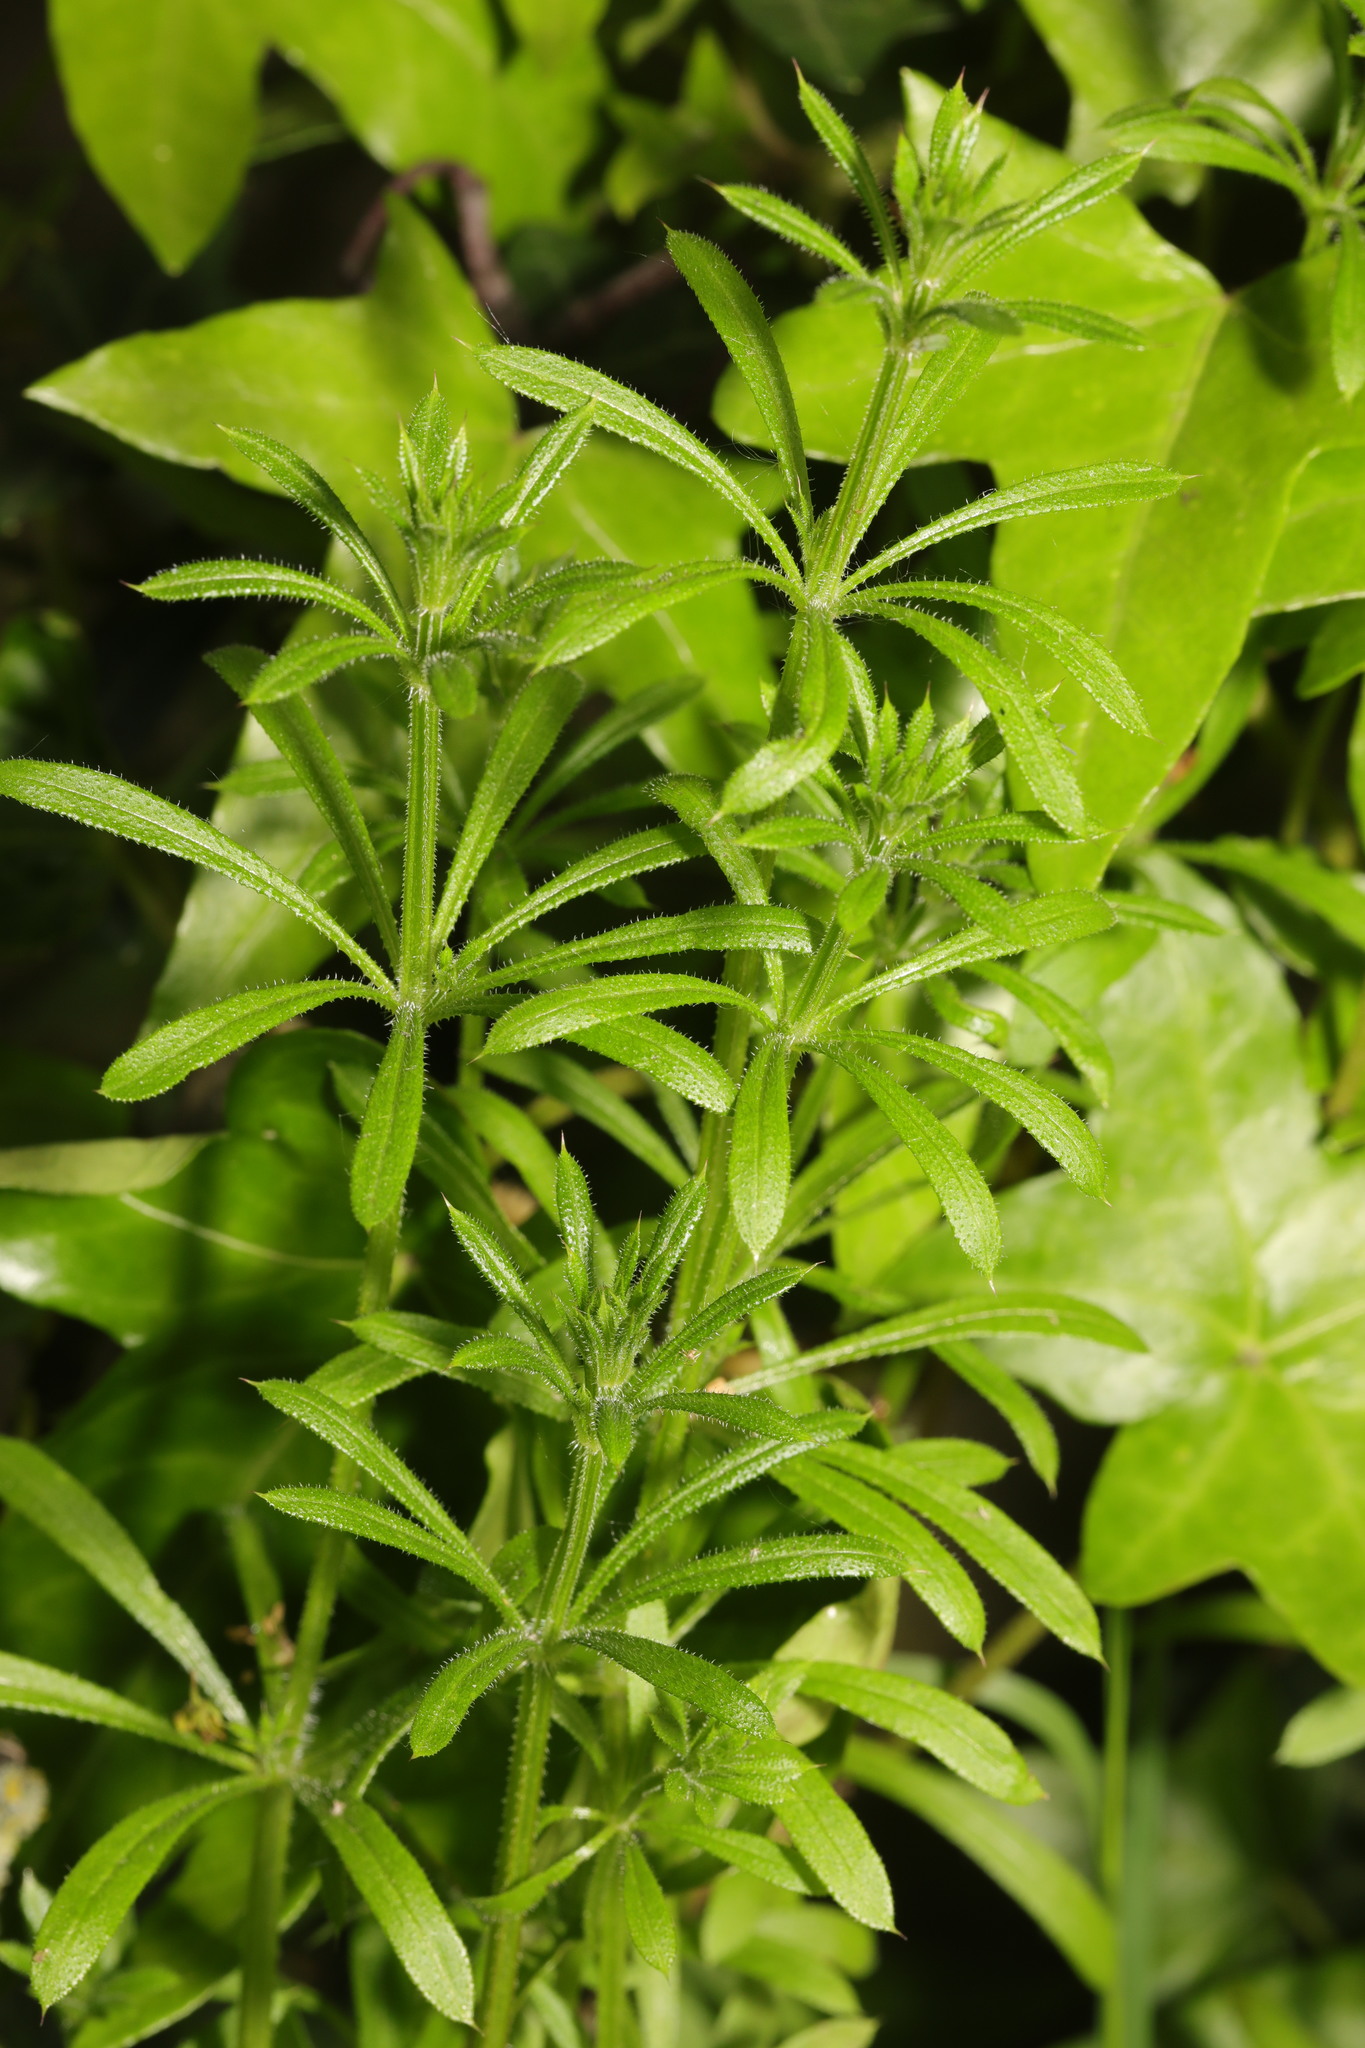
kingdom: Plantae
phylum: Tracheophyta
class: Magnoliopsida
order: Gentianales
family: Rubiaceae
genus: Galium
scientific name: Galium aparine
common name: Cleavers
